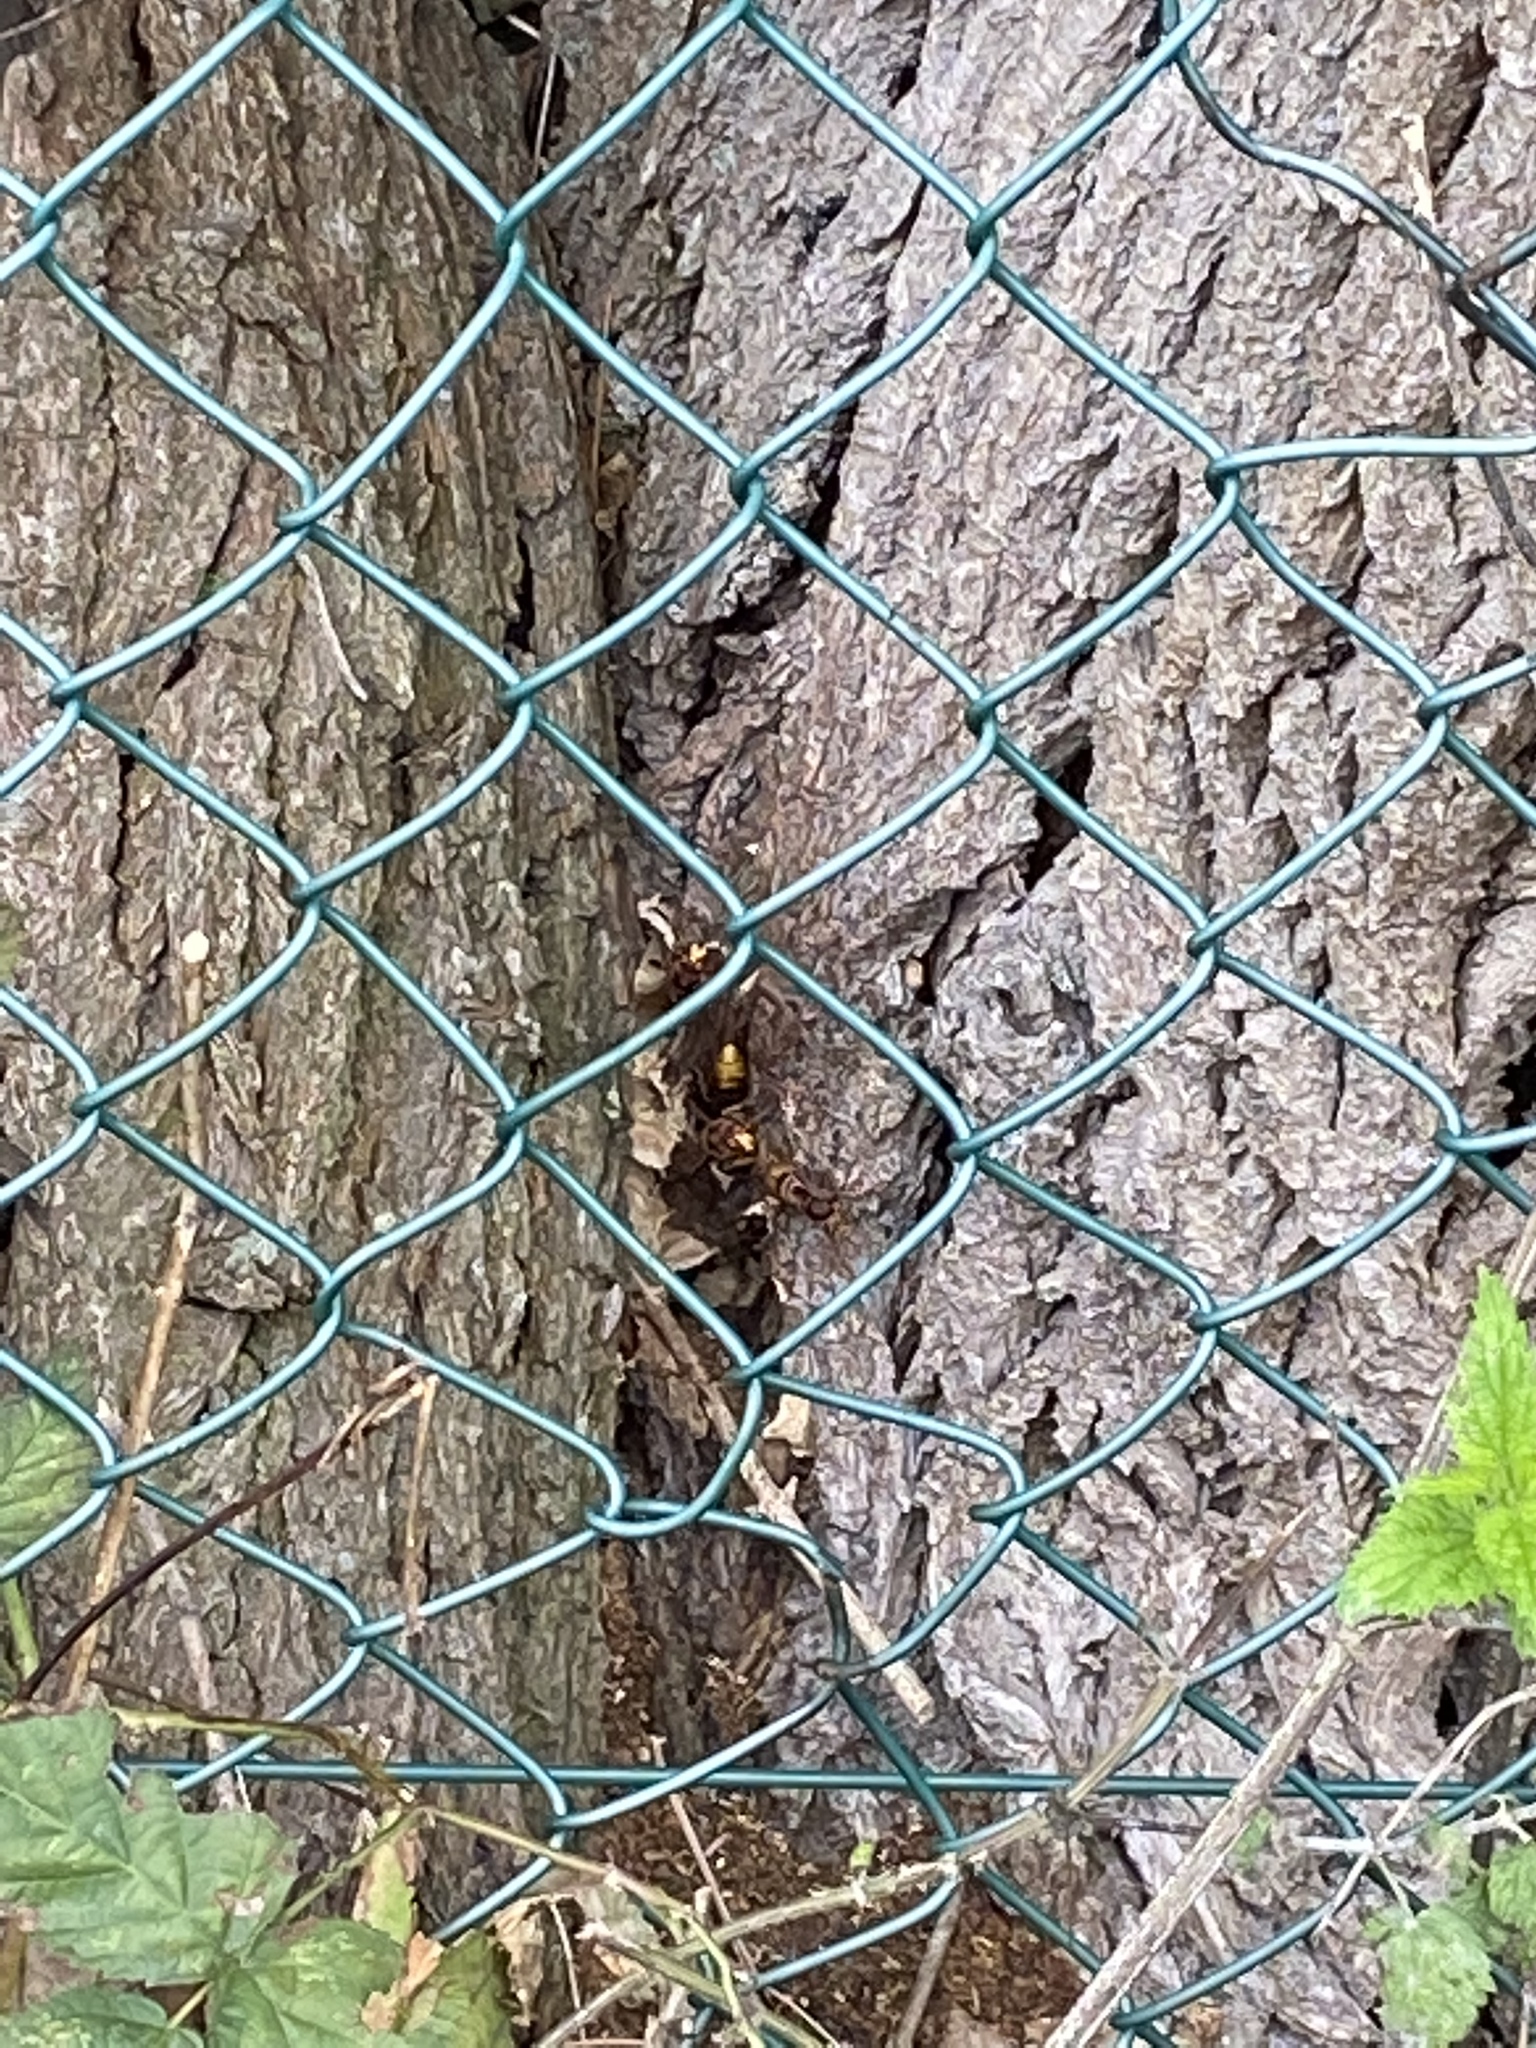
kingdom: Animalia
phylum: Arthropoda
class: Insecta
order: Hymenoptera
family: Vespidae
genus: Vespa
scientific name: Vespa crabro
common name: Hornet
